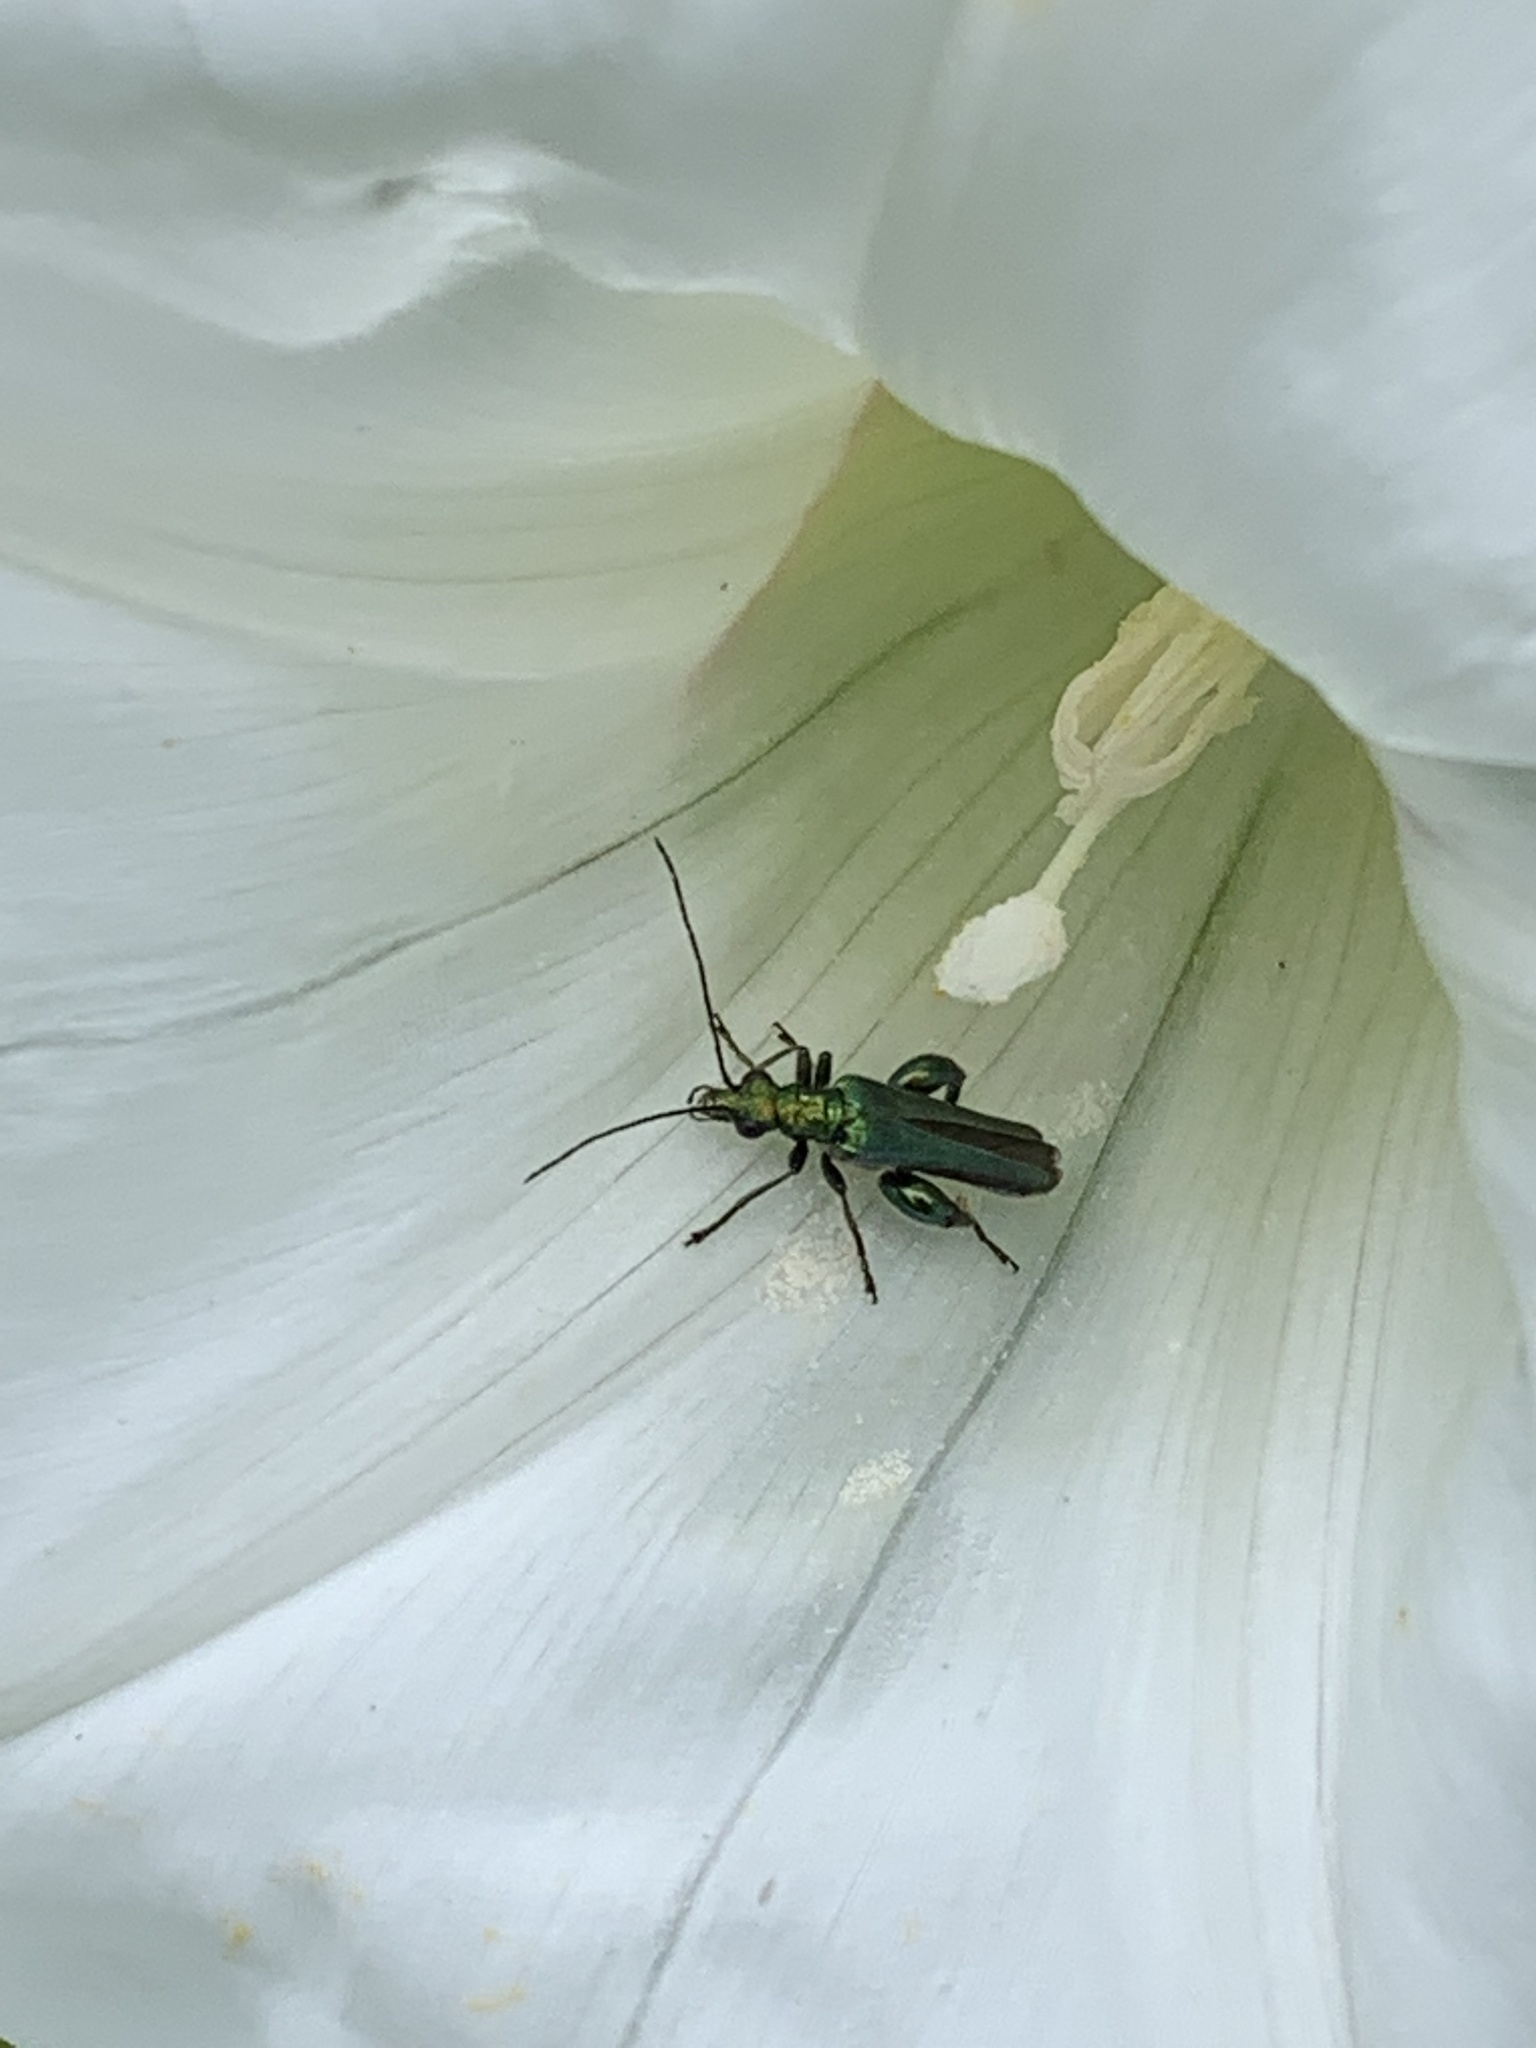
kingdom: Animalia
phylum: Arthropoda
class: Insecta
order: Coleoptera
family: Oedemeridae
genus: Oedemera
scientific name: Oedemera nobilis
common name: Swollen-thighed beetle
